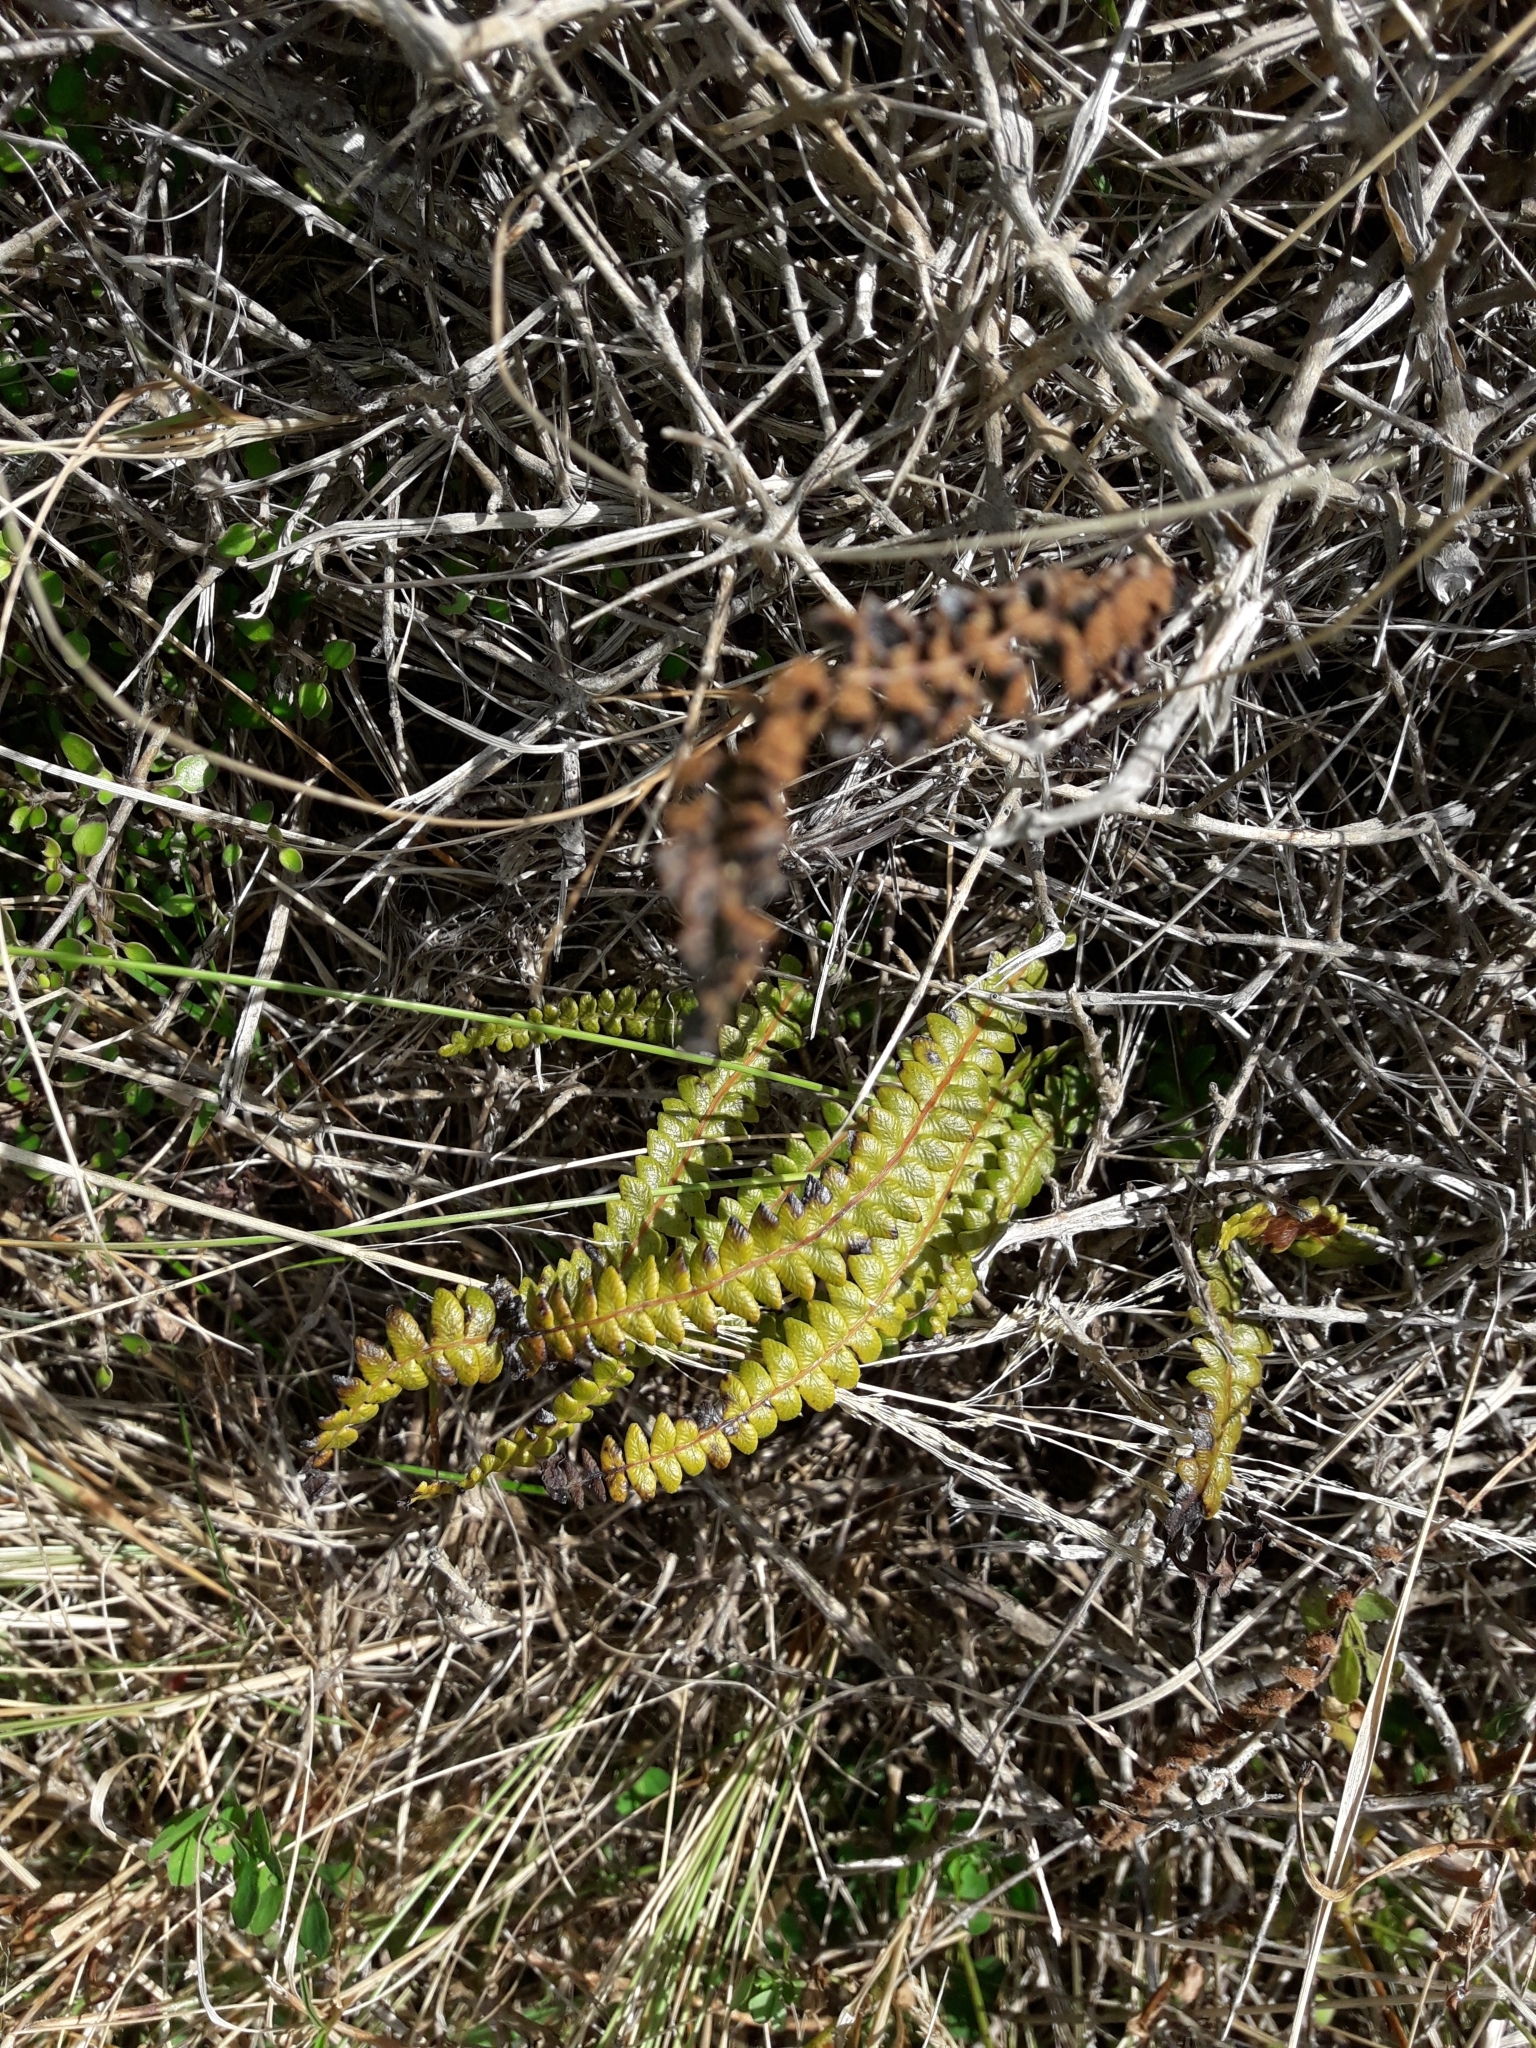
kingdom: Plantae
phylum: Tracheophyta
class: Polypodiopsida
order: Polypodiales
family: Blechnaceae
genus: Austroblechnum
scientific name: Austroblechnum penna-marina
